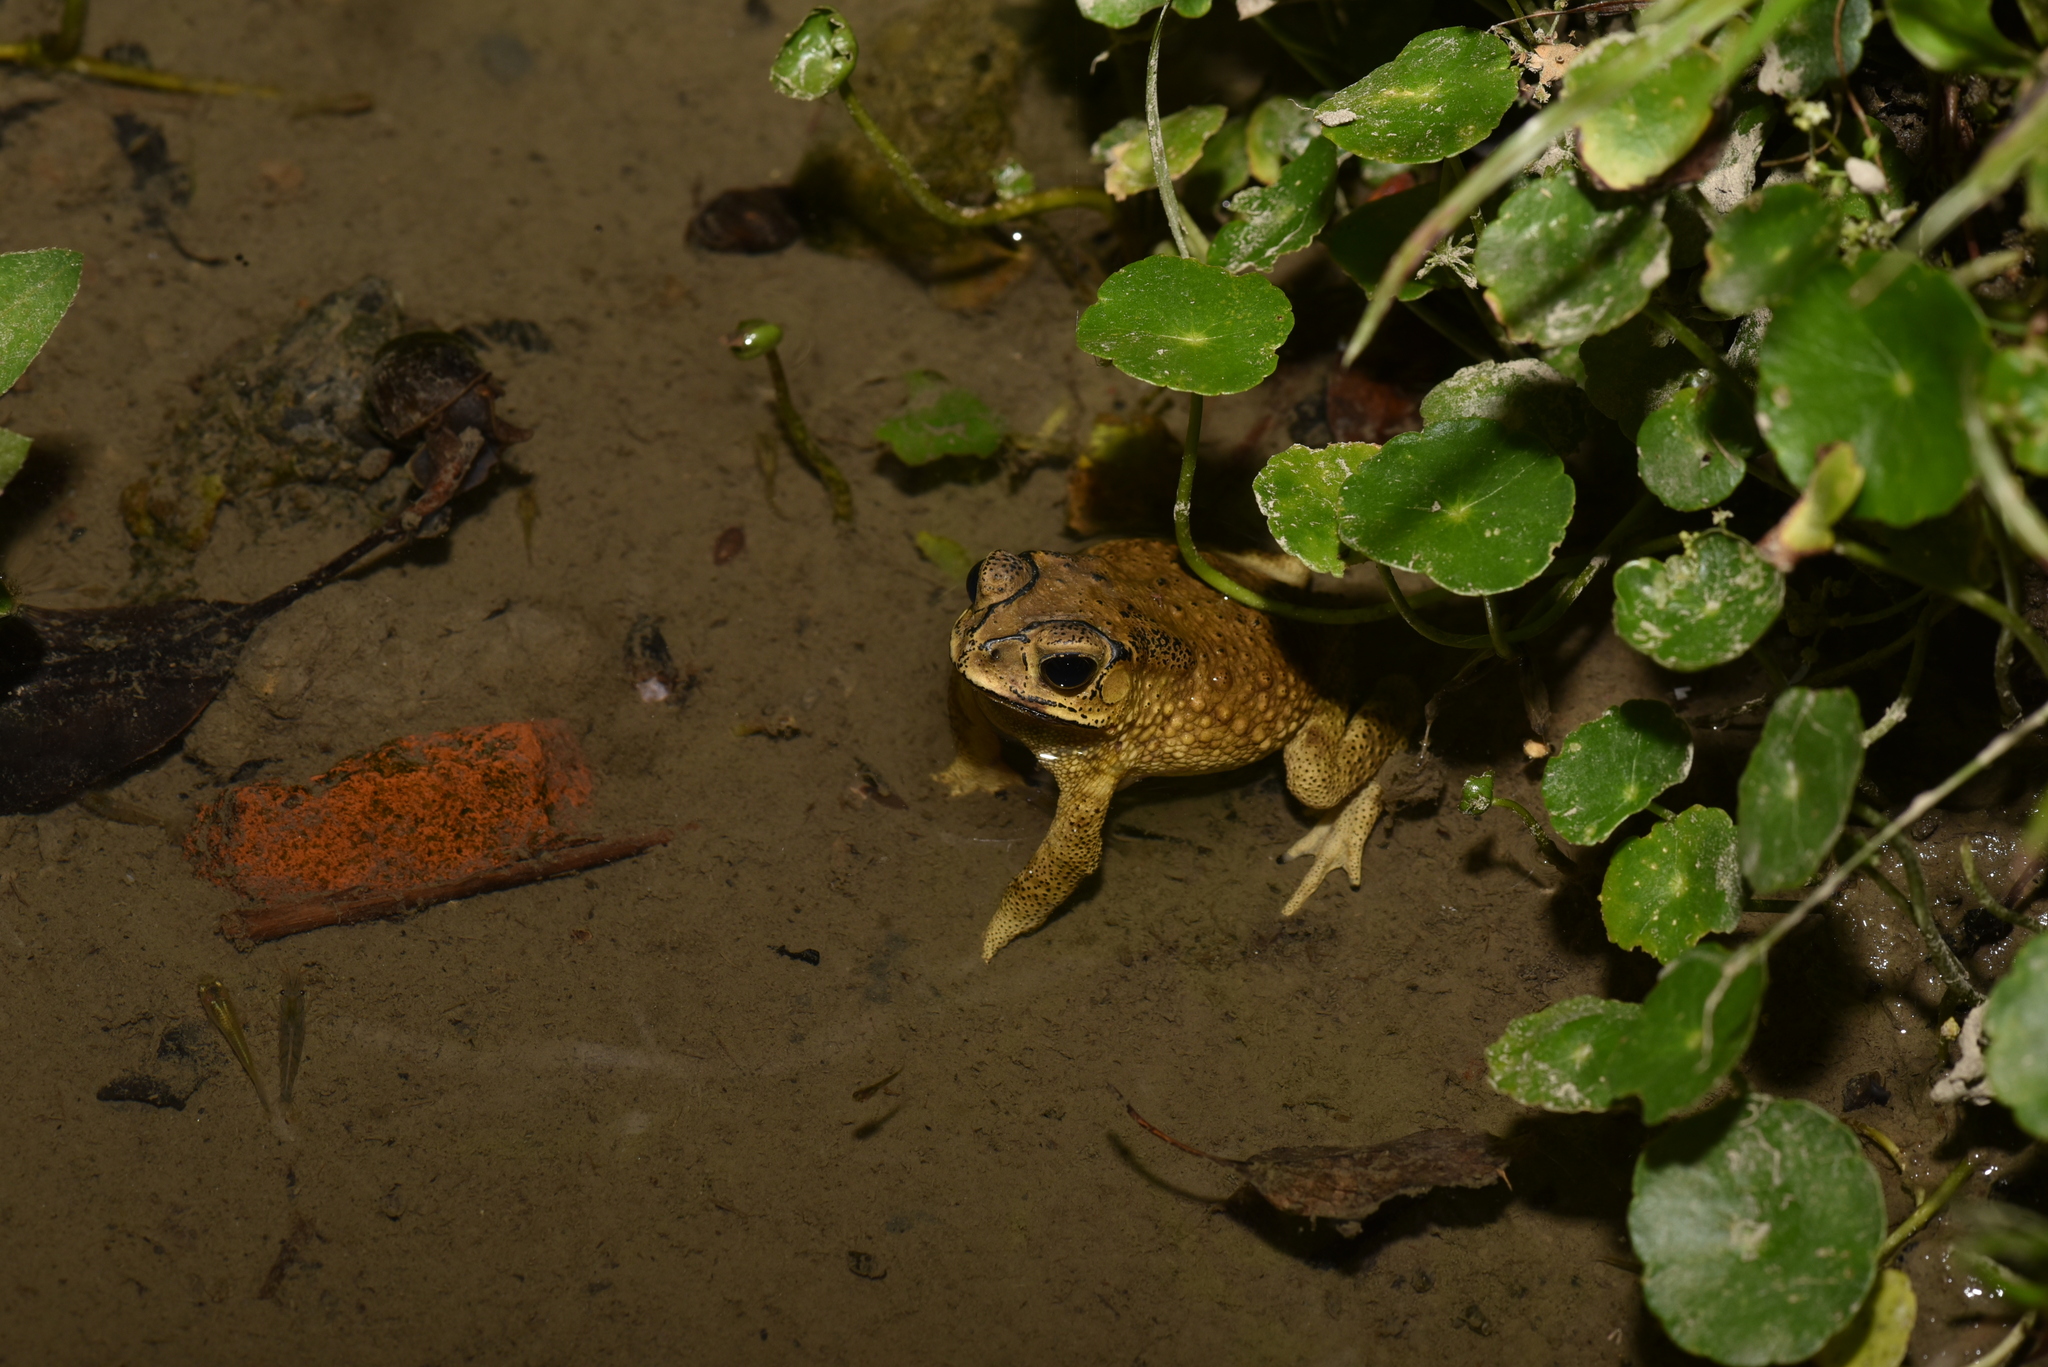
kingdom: Animalia
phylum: Chordata
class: Amphibia
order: Anura
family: Bufonidae
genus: Duttaphrynus
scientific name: Duttaphrynus melanostictus
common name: Common sunda toad
